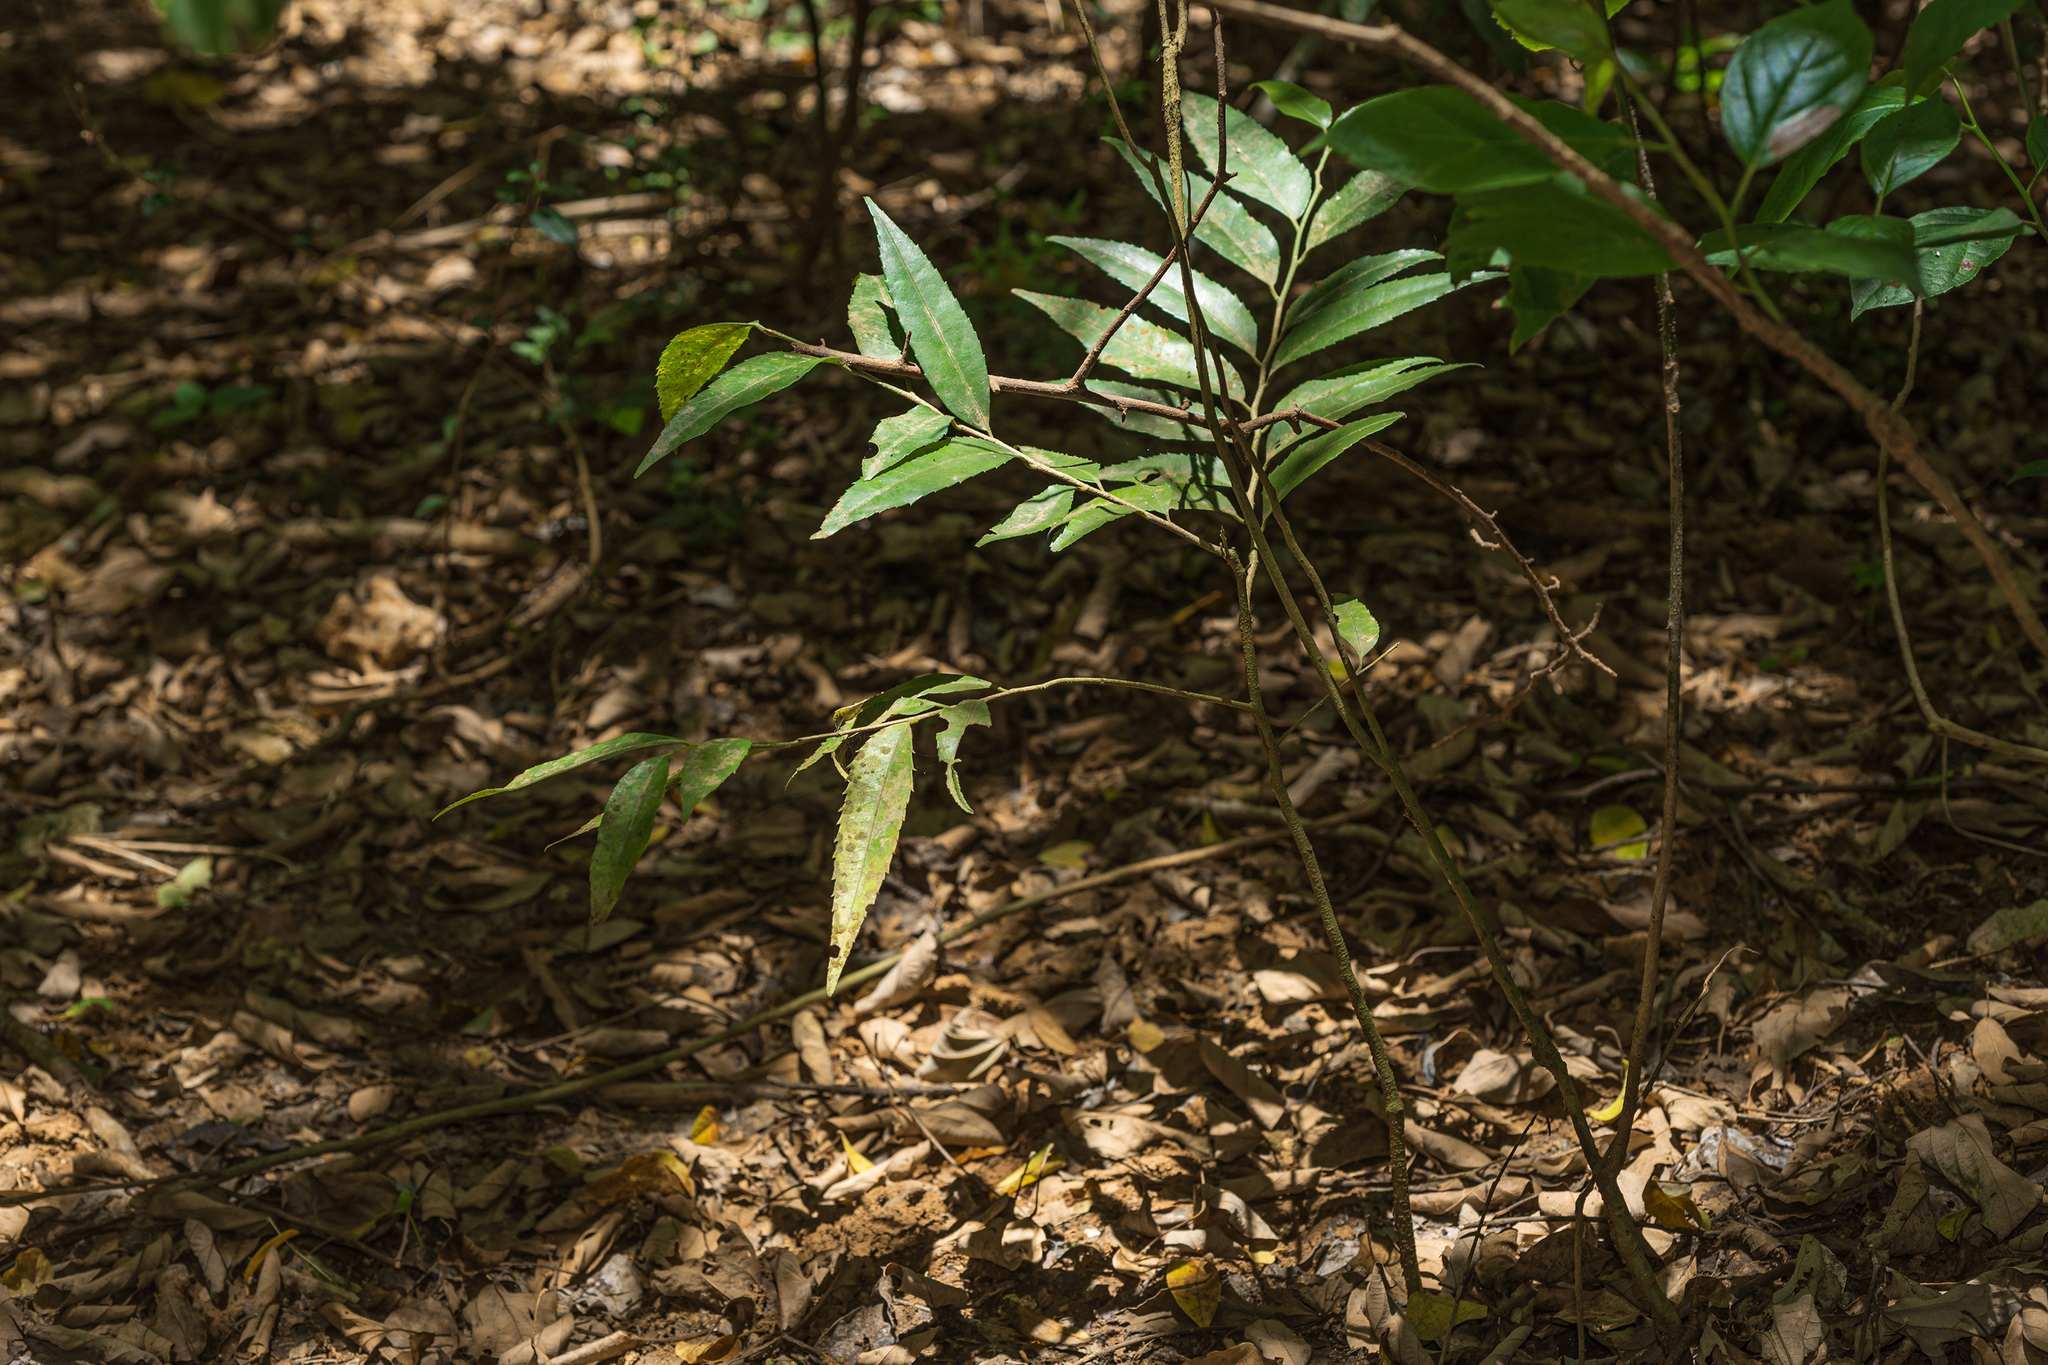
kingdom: Plantae
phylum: Tracheophyta
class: Magnoliopsida
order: Malpighiales
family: Putranjivaceae
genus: Putranjiva
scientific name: Putranjiva formosana
